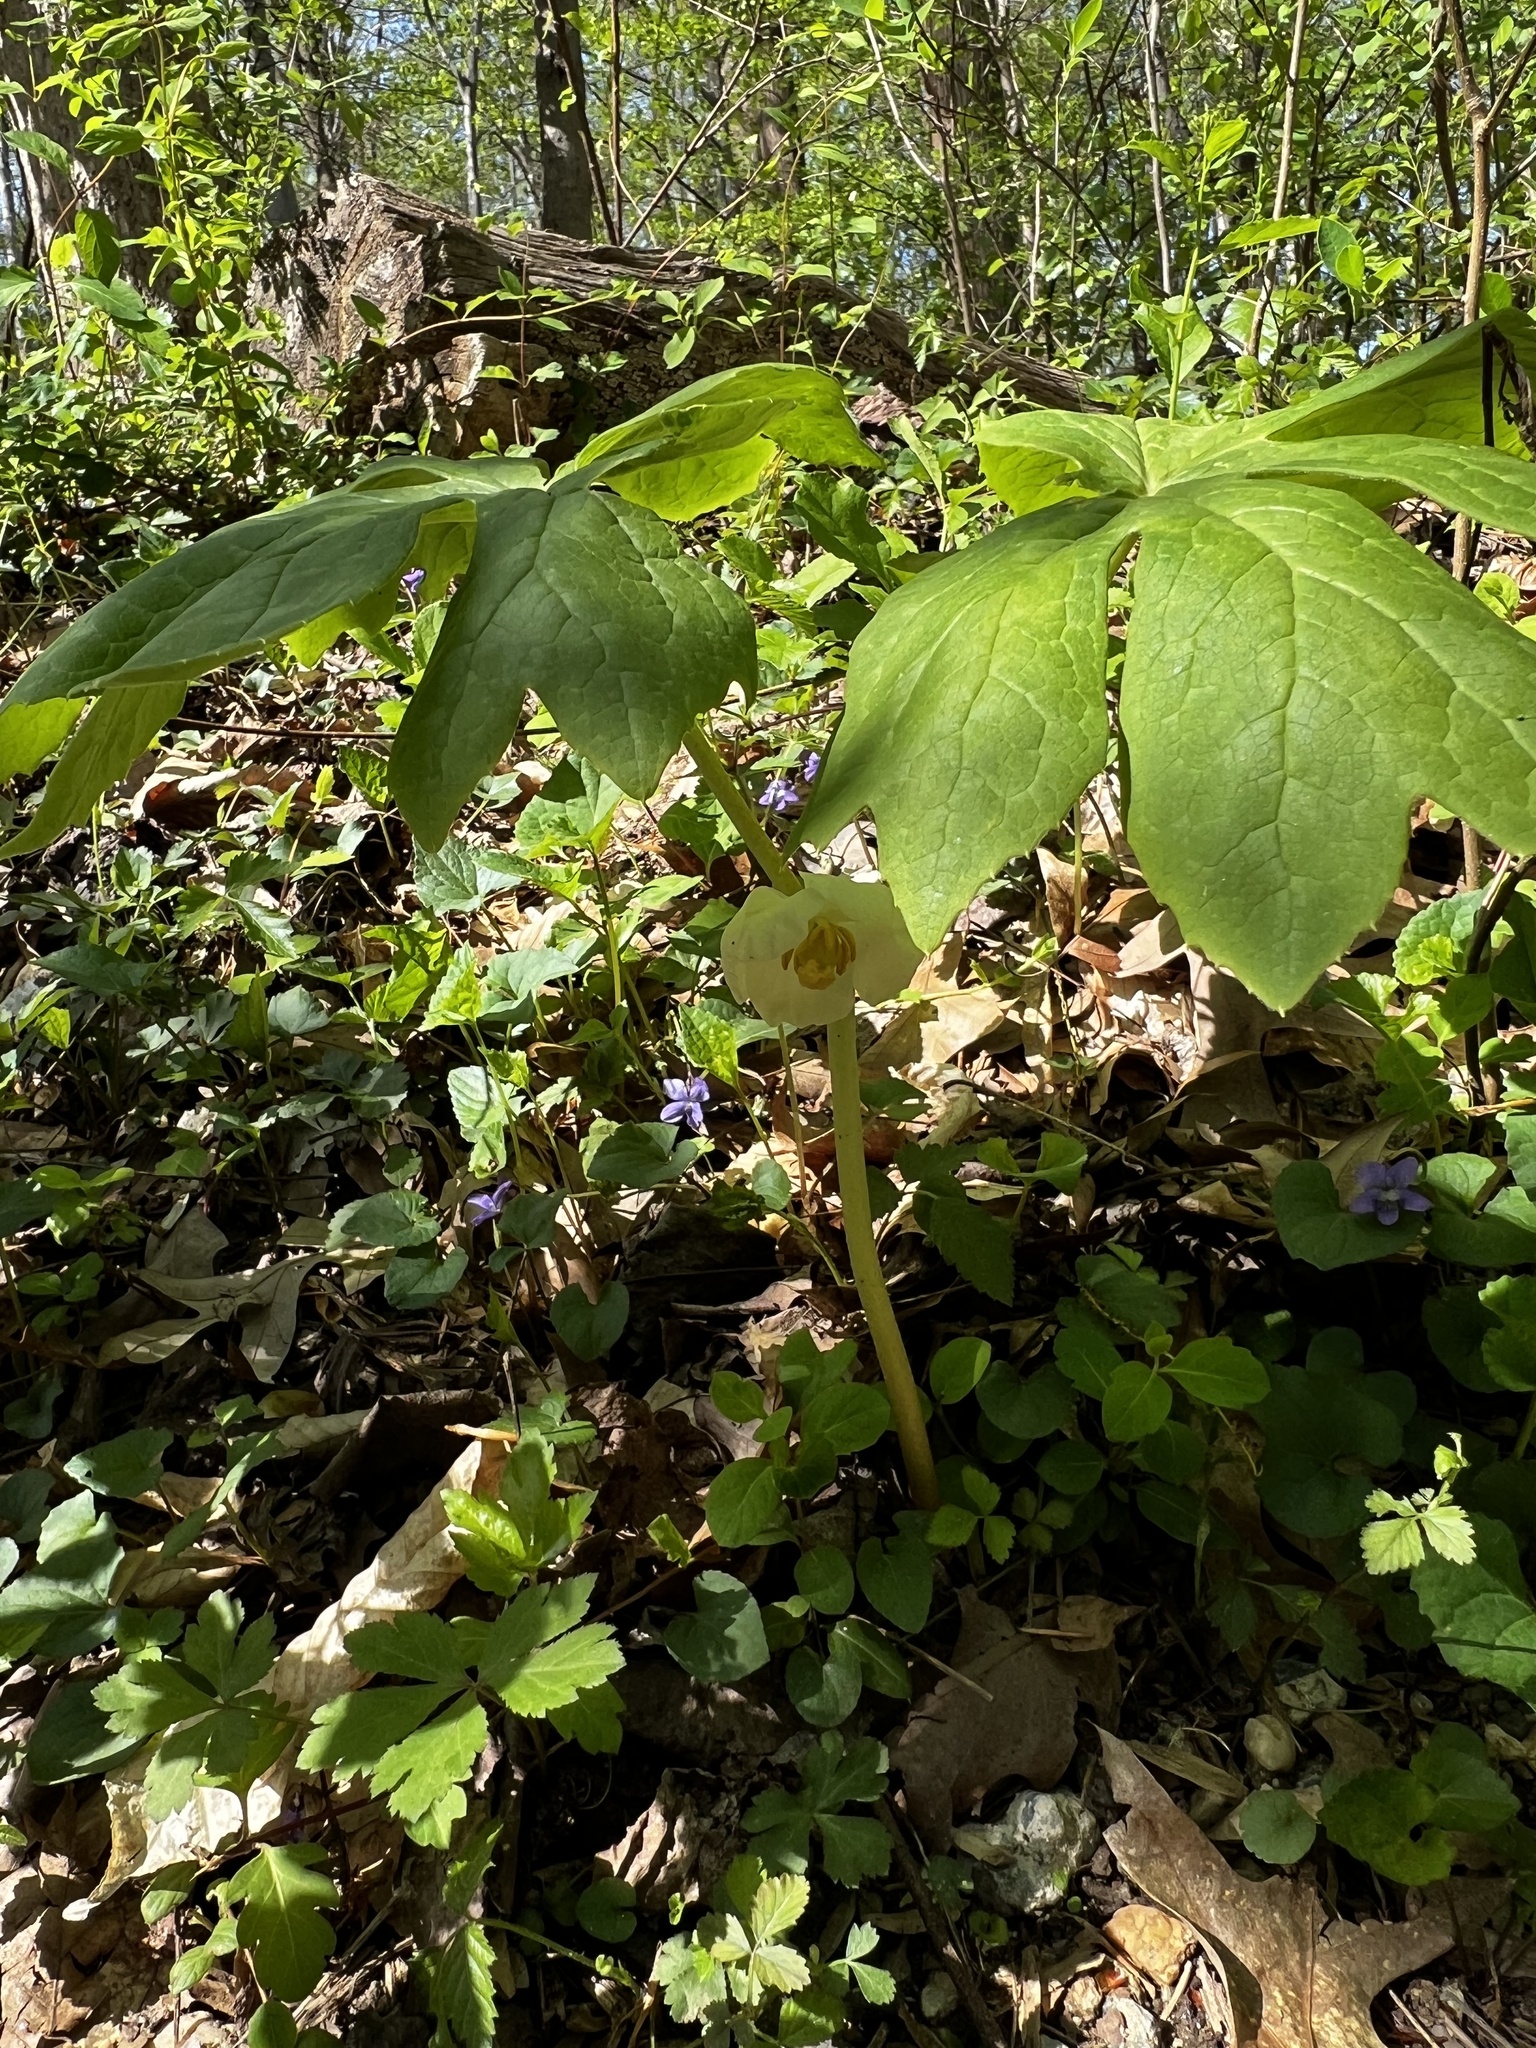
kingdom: Plantae
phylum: Tracheophyta
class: Magnoliopsida
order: Ranunculales
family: Berberidaceae
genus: Podophyllum
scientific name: Podophyllum peltatum
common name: Wild mandrake
